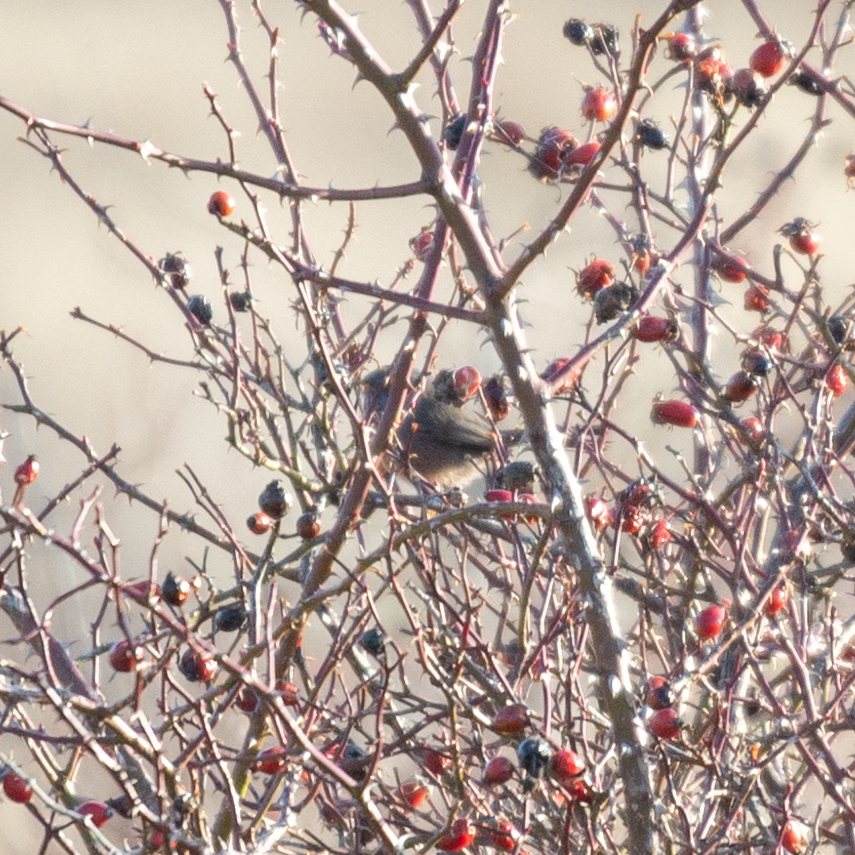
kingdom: Animalia
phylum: Chordata
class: Aves
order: Passeriformes
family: Sylviidae
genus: Sylvia
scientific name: Sylvia undata
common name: Dartford warbler
